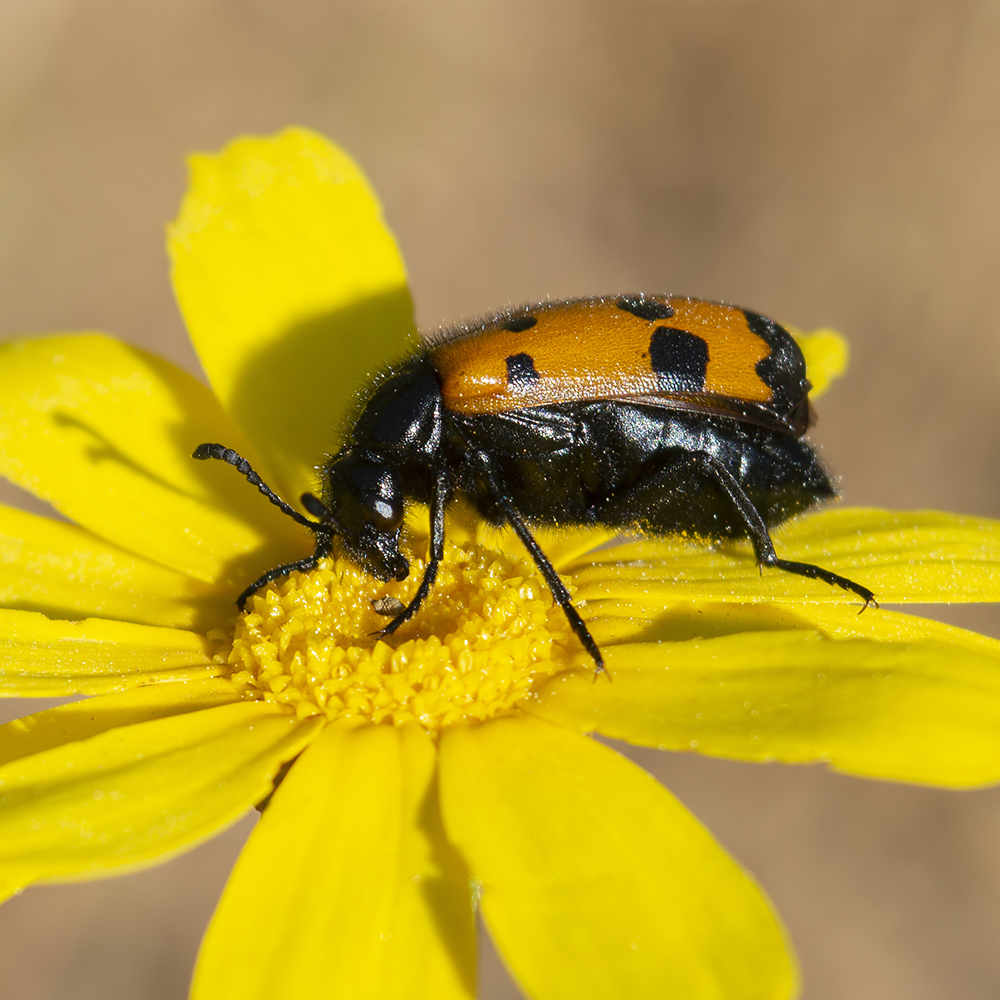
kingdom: Animalia
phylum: Arthropoda
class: Insecta
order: Coleoptera
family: Meloidae
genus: Mylabris
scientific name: Mylabris quadripunctata
